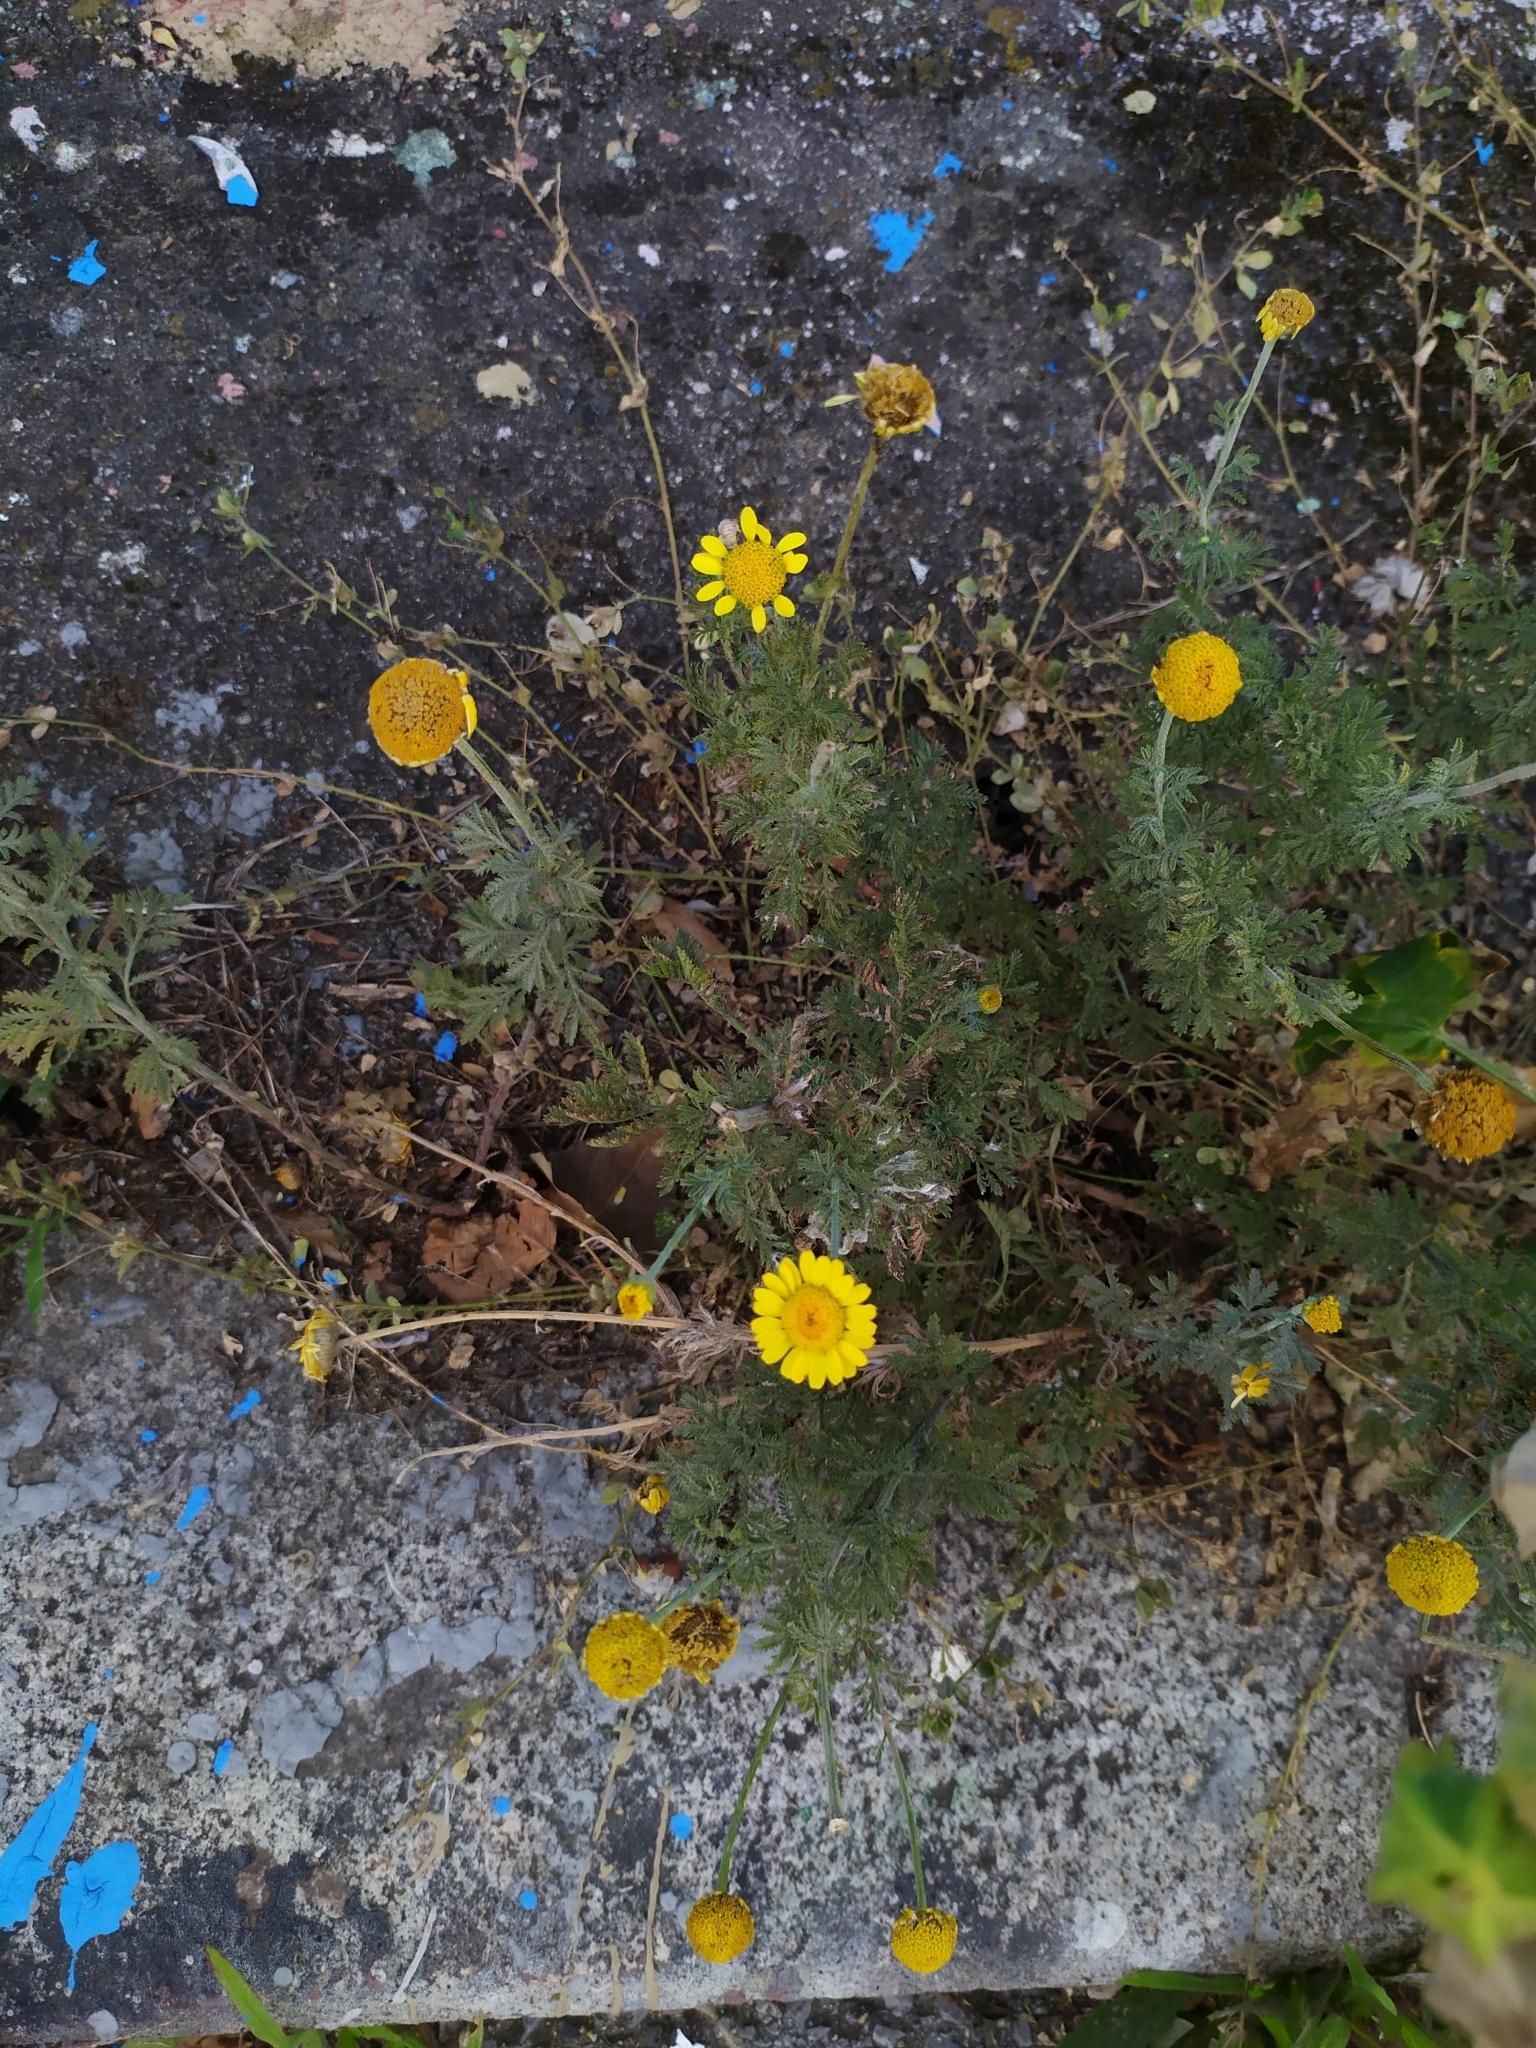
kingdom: Plantae
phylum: Tracheophyta
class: Magnoliopsida
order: Asterales
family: Asteraceae
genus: Cota
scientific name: Cota tinctoria
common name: Golden chamomile
